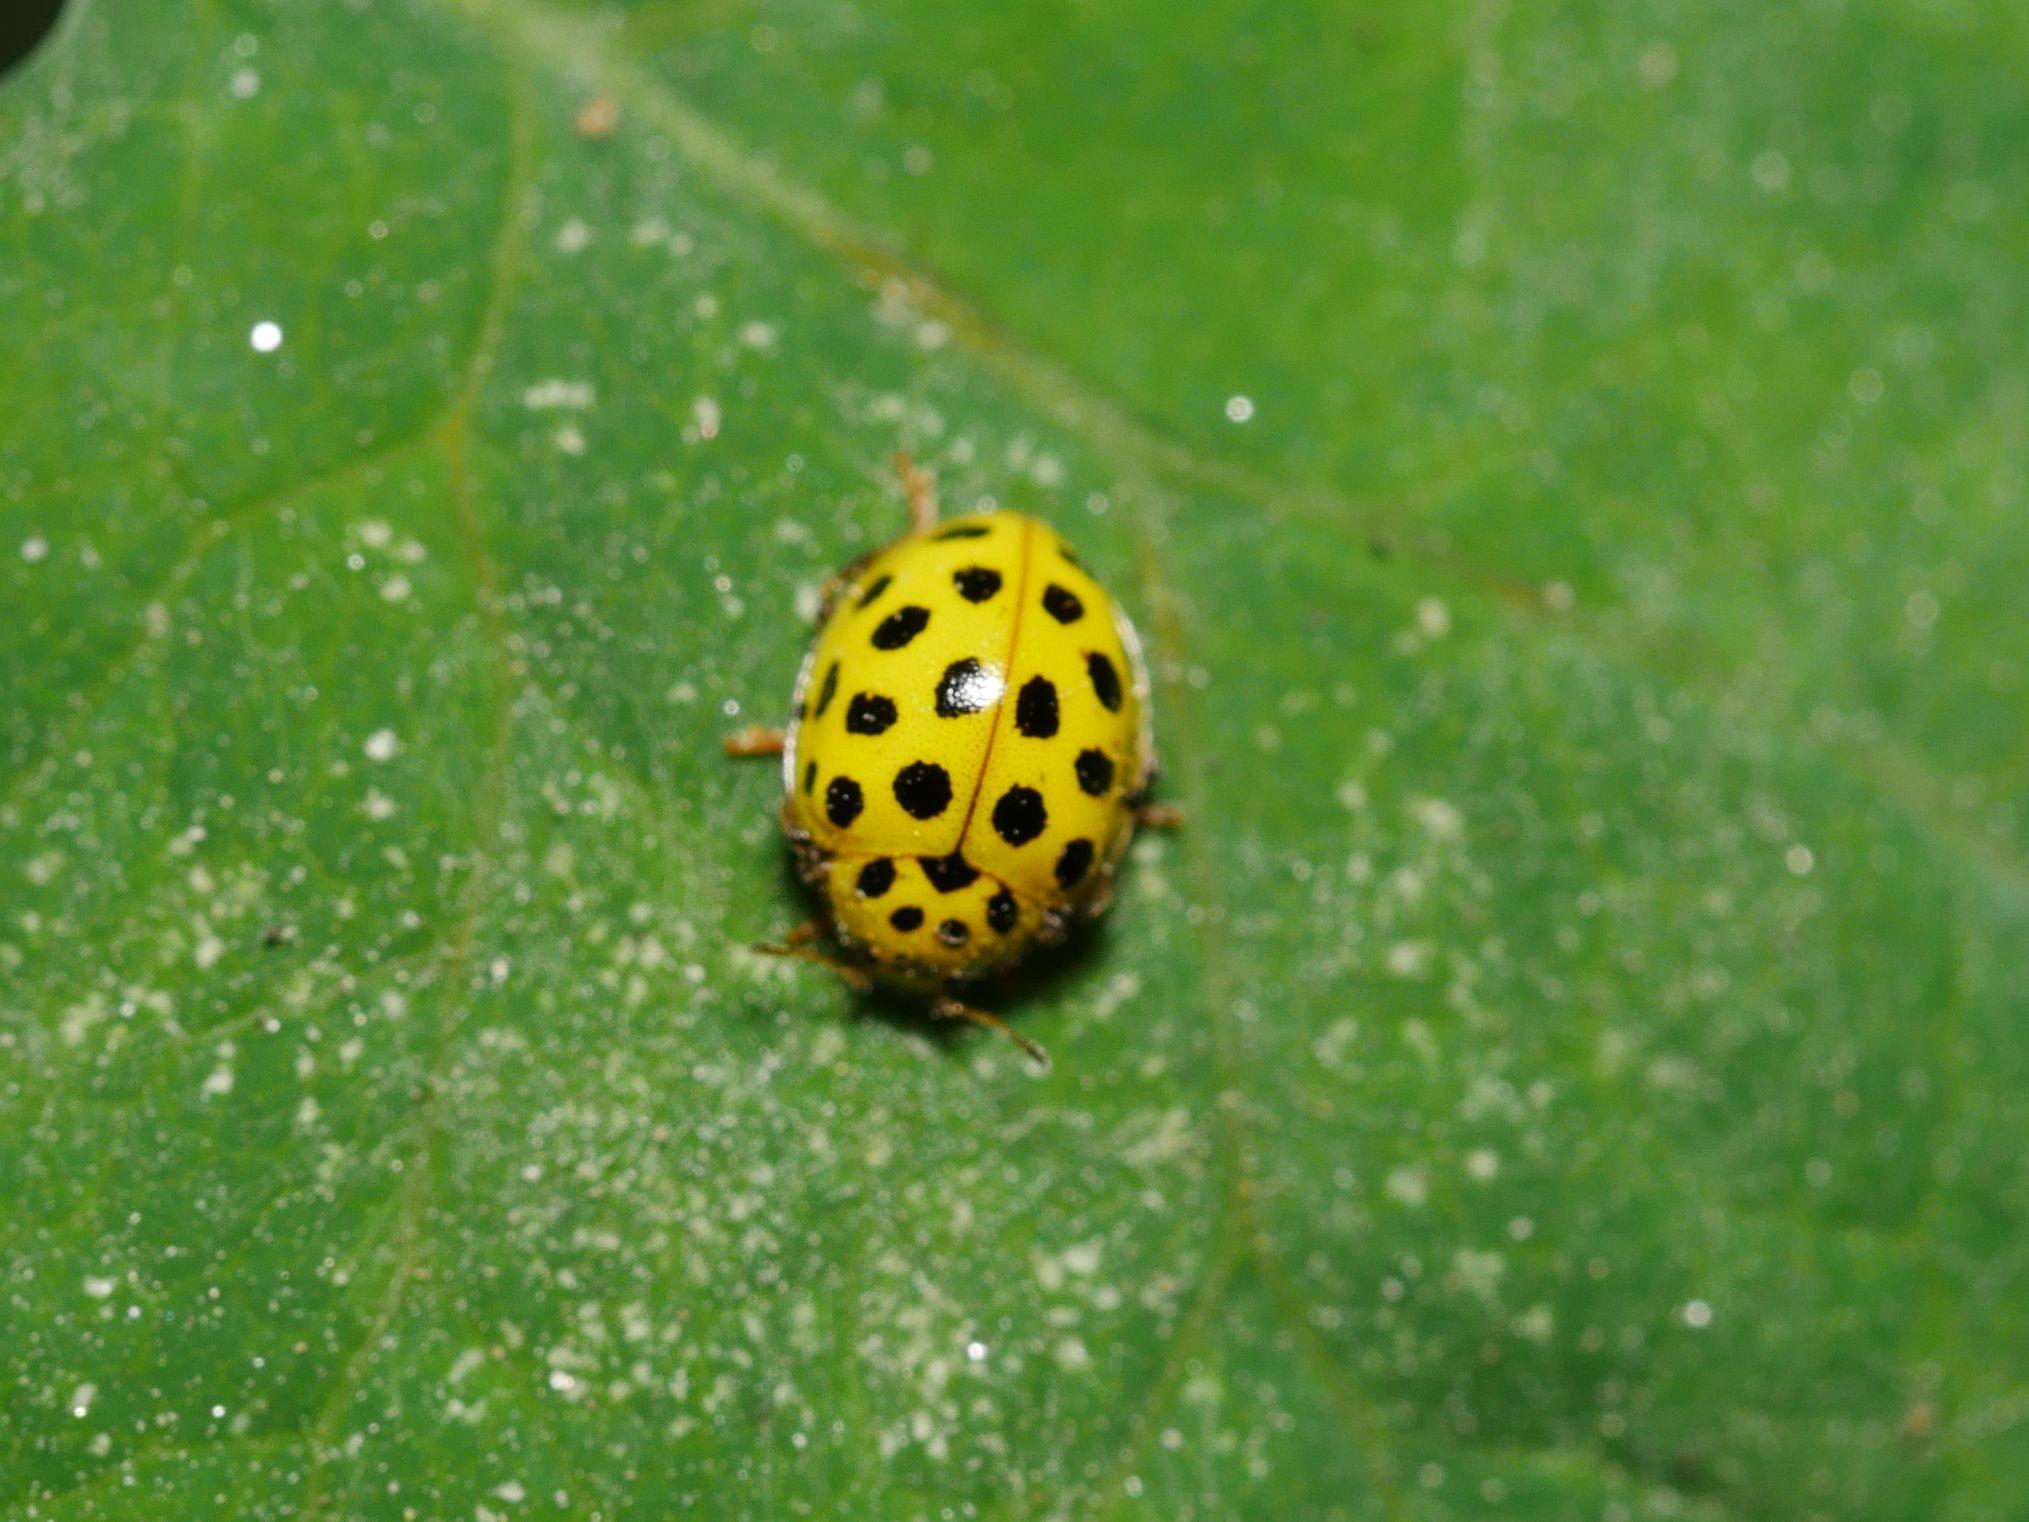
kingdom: Animalia
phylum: Arthropoda
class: Insecta
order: Coleoptera
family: Coccinellidae
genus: Psyllobora
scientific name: Psyllobora vigintiduopunctata
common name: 22-spot ladybird
